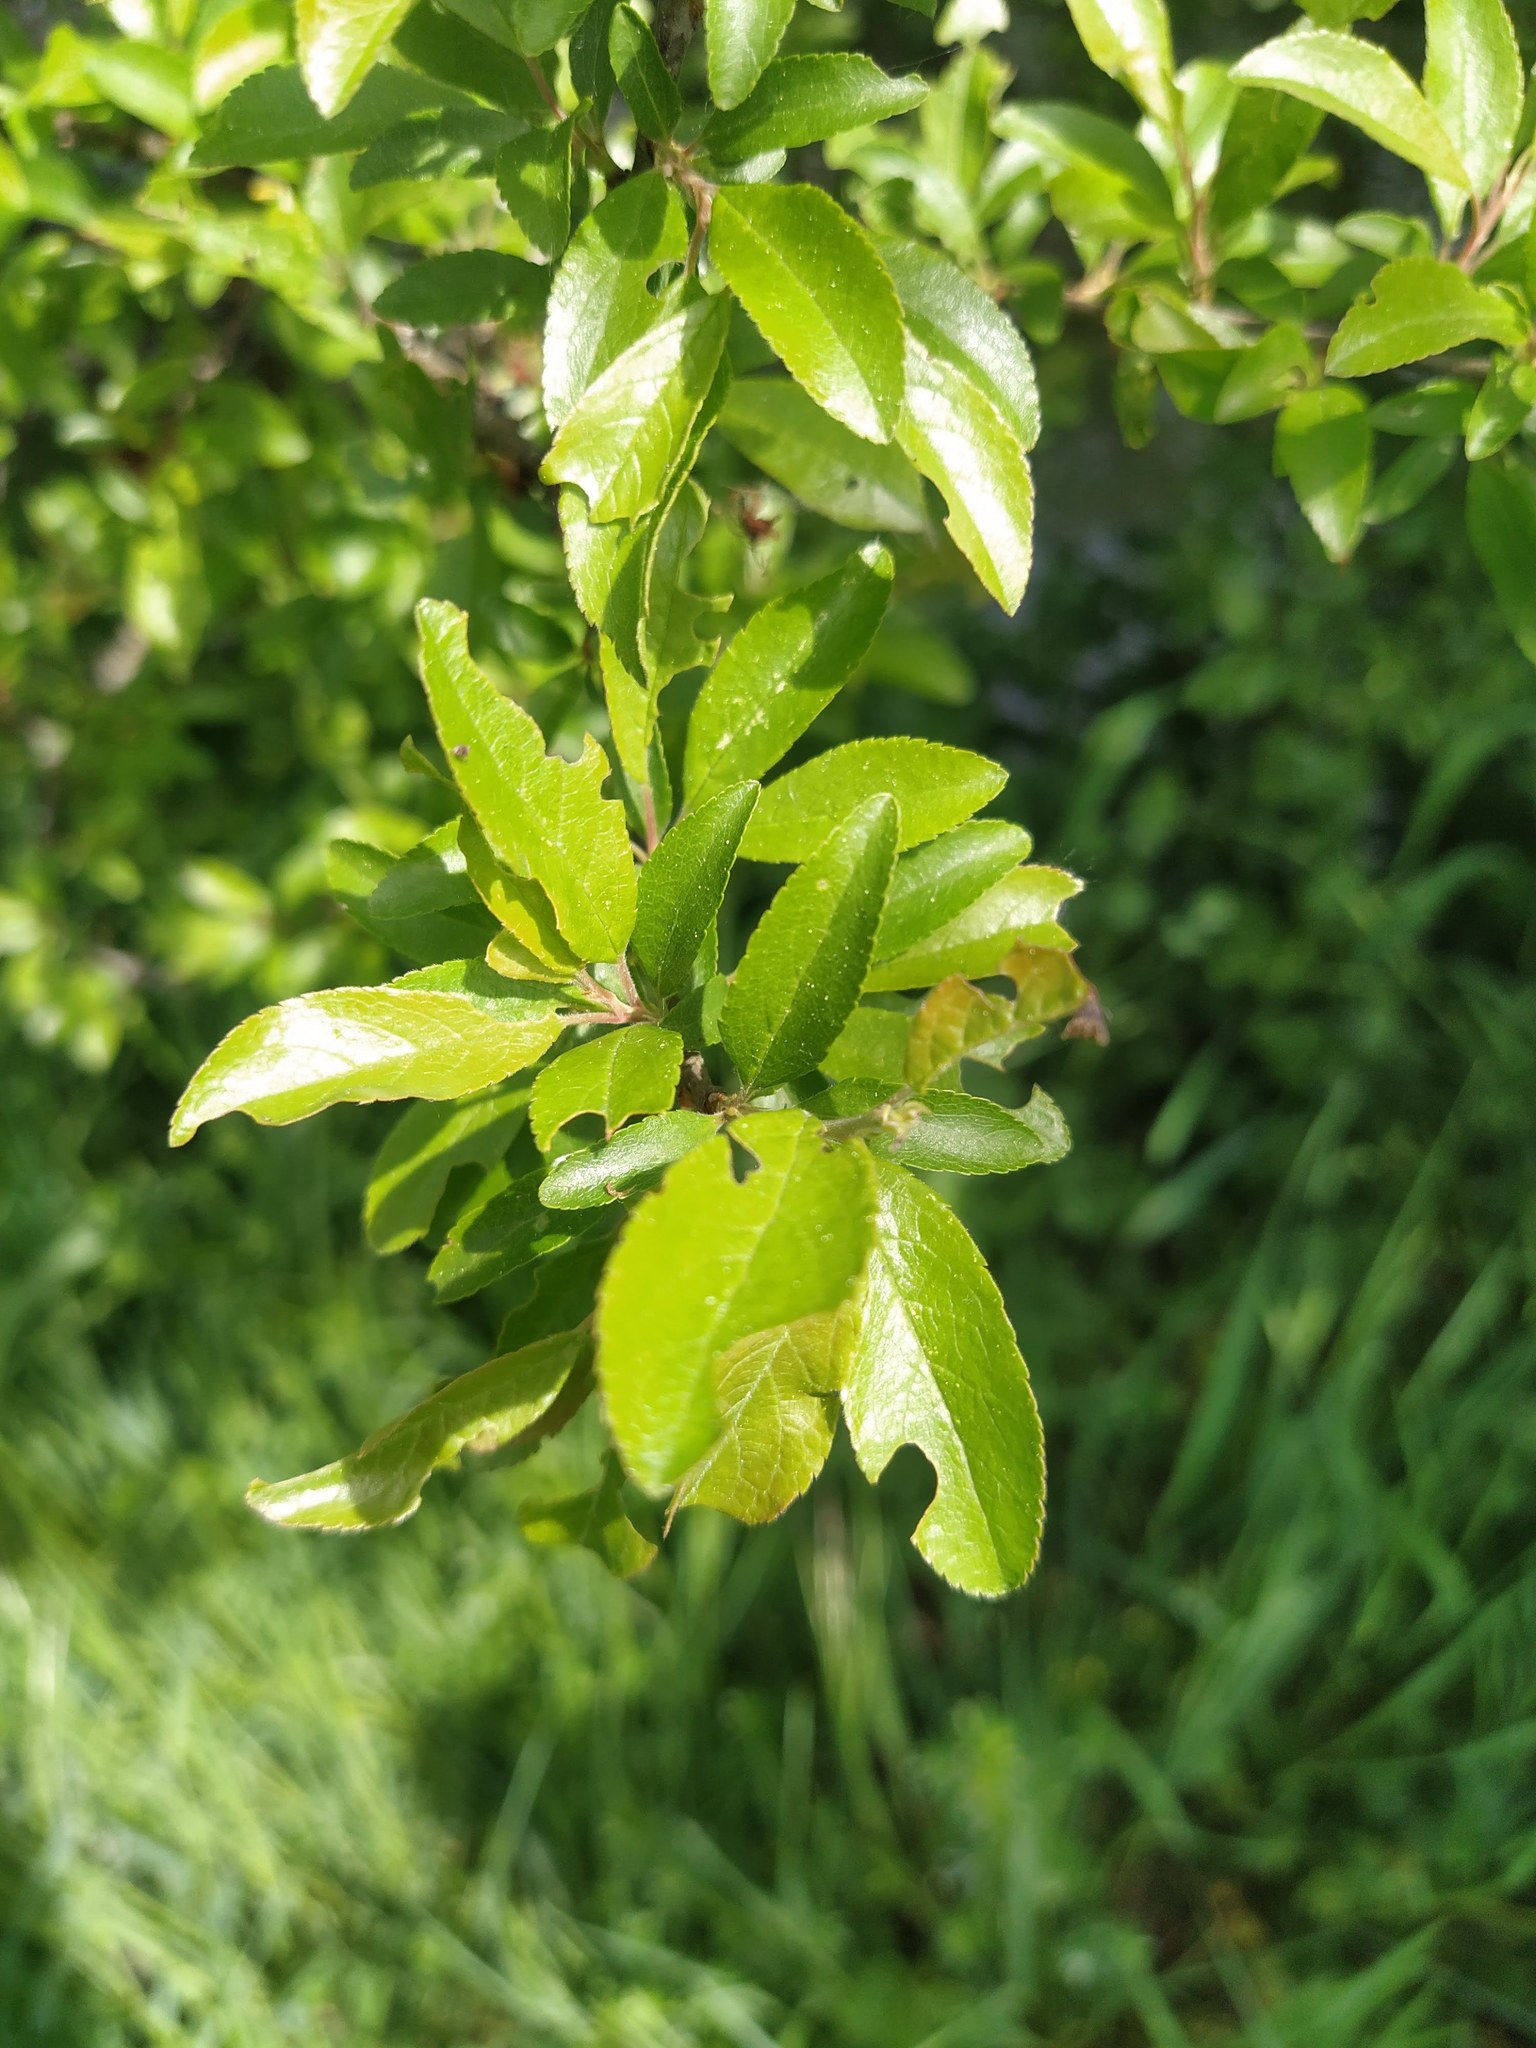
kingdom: Plantae
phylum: Tracheophyta
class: Magnoliopsida
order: Rosales
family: Rosaceae
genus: Prunus
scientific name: Prunus spinosa
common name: Blackthorn
